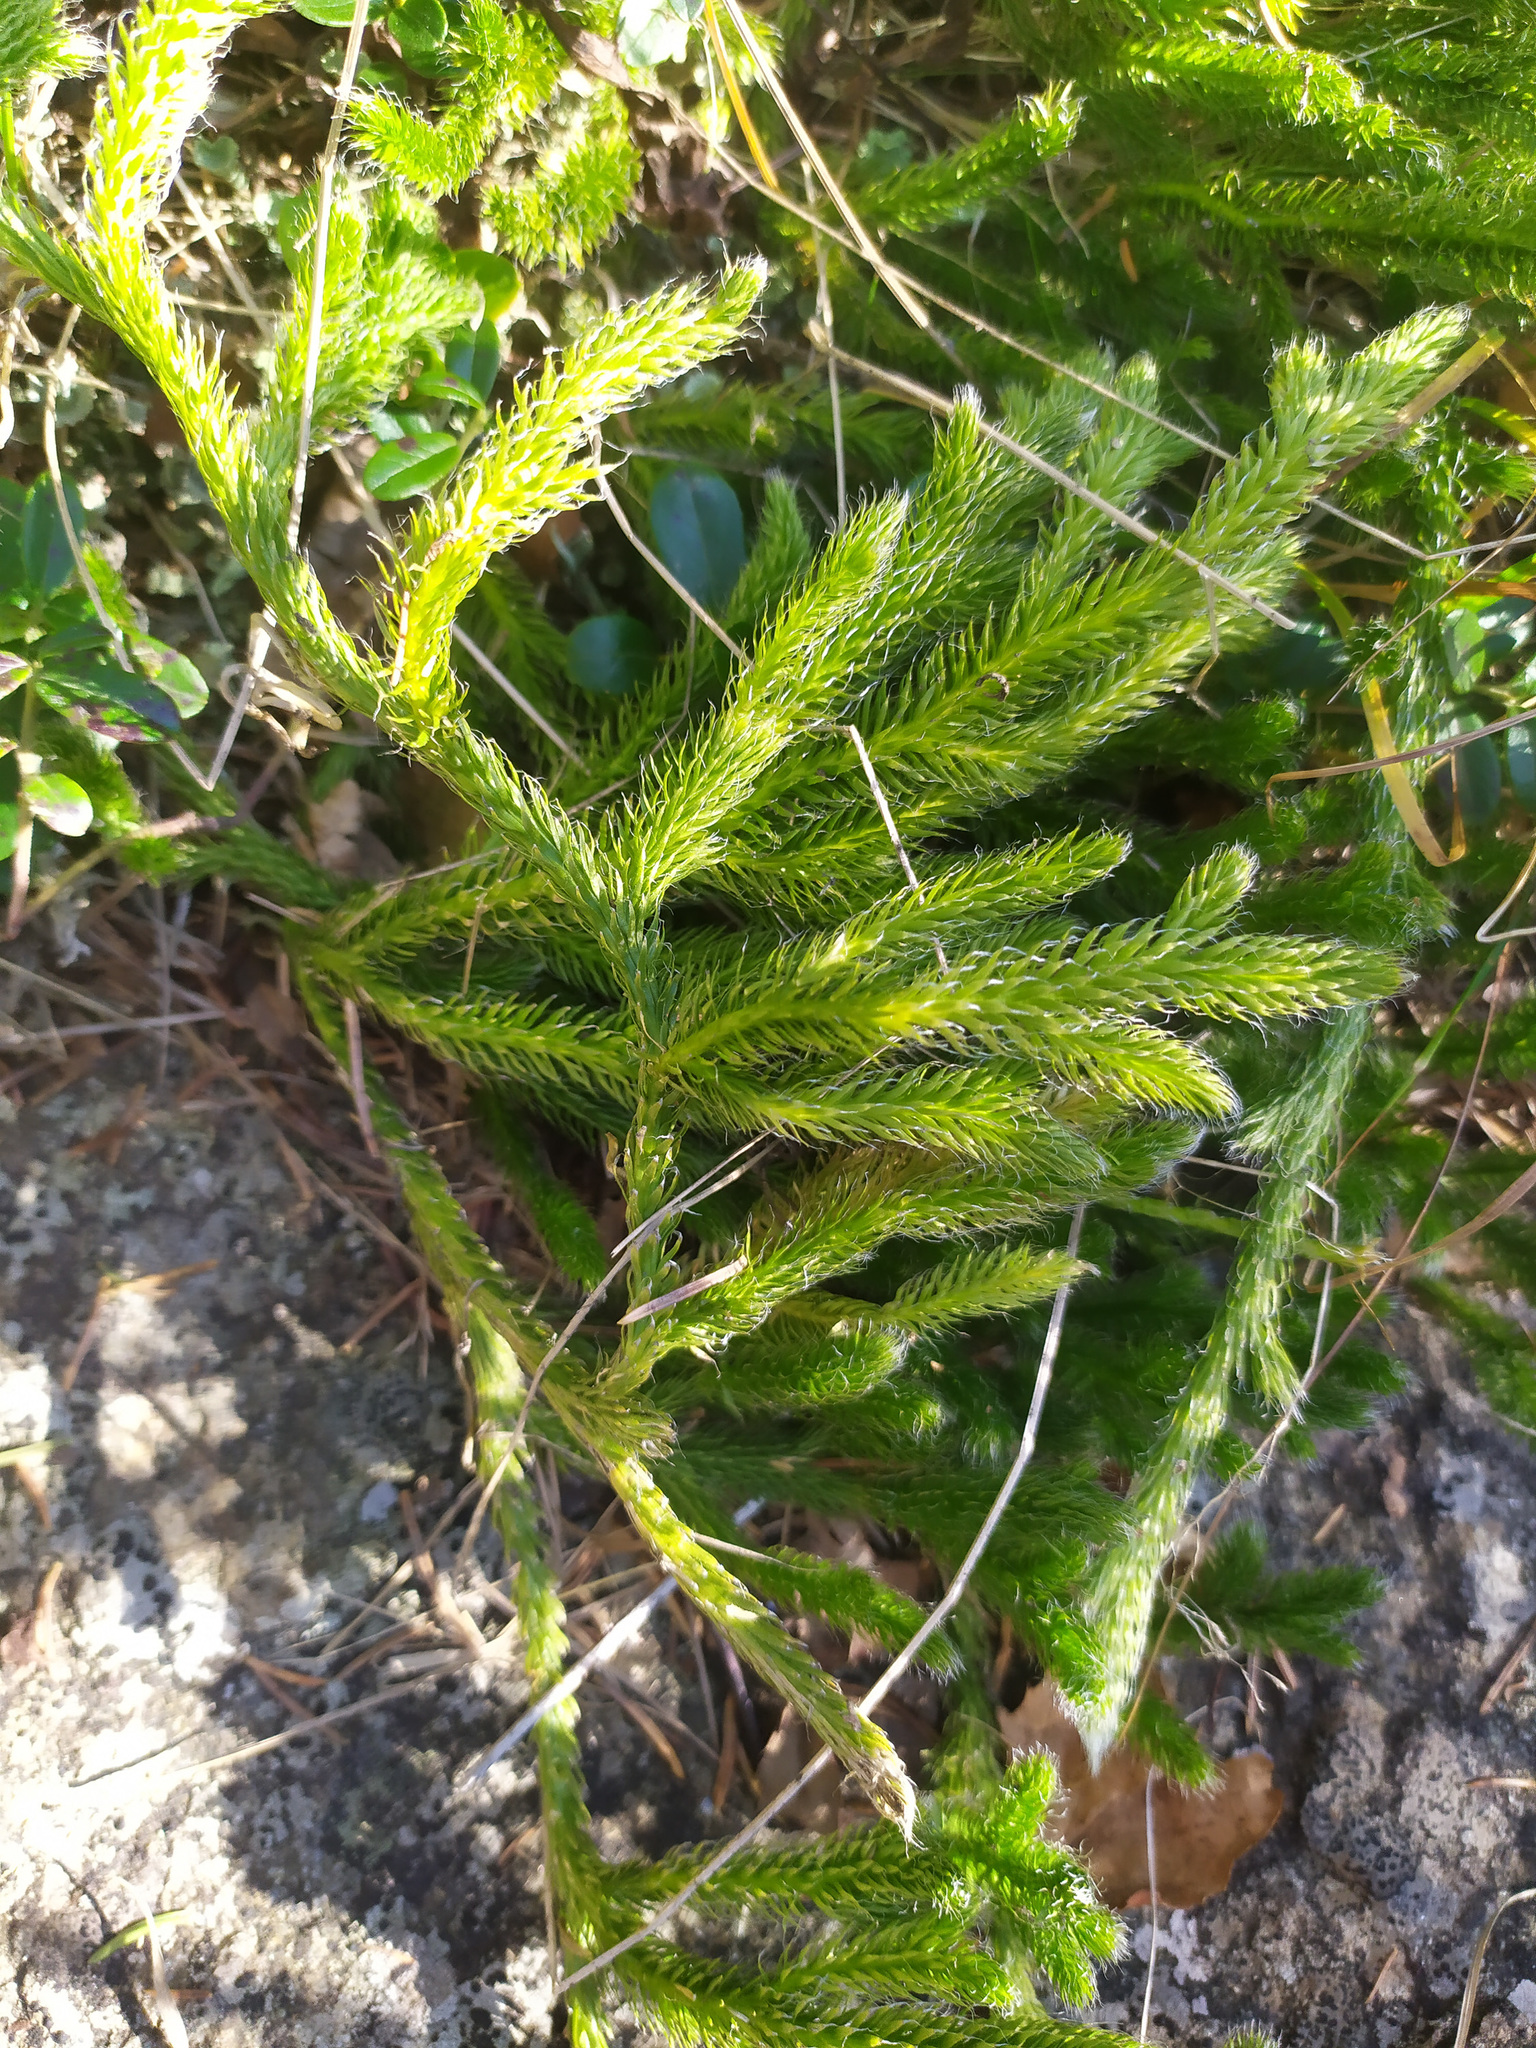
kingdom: Plantae
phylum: Tracheophyta
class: Lycopodiopsida
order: Lycopodiales
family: Lycopodiaceae
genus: Lycopodium
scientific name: Lycopodium clavatum
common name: Stag's-horn clubmoss
